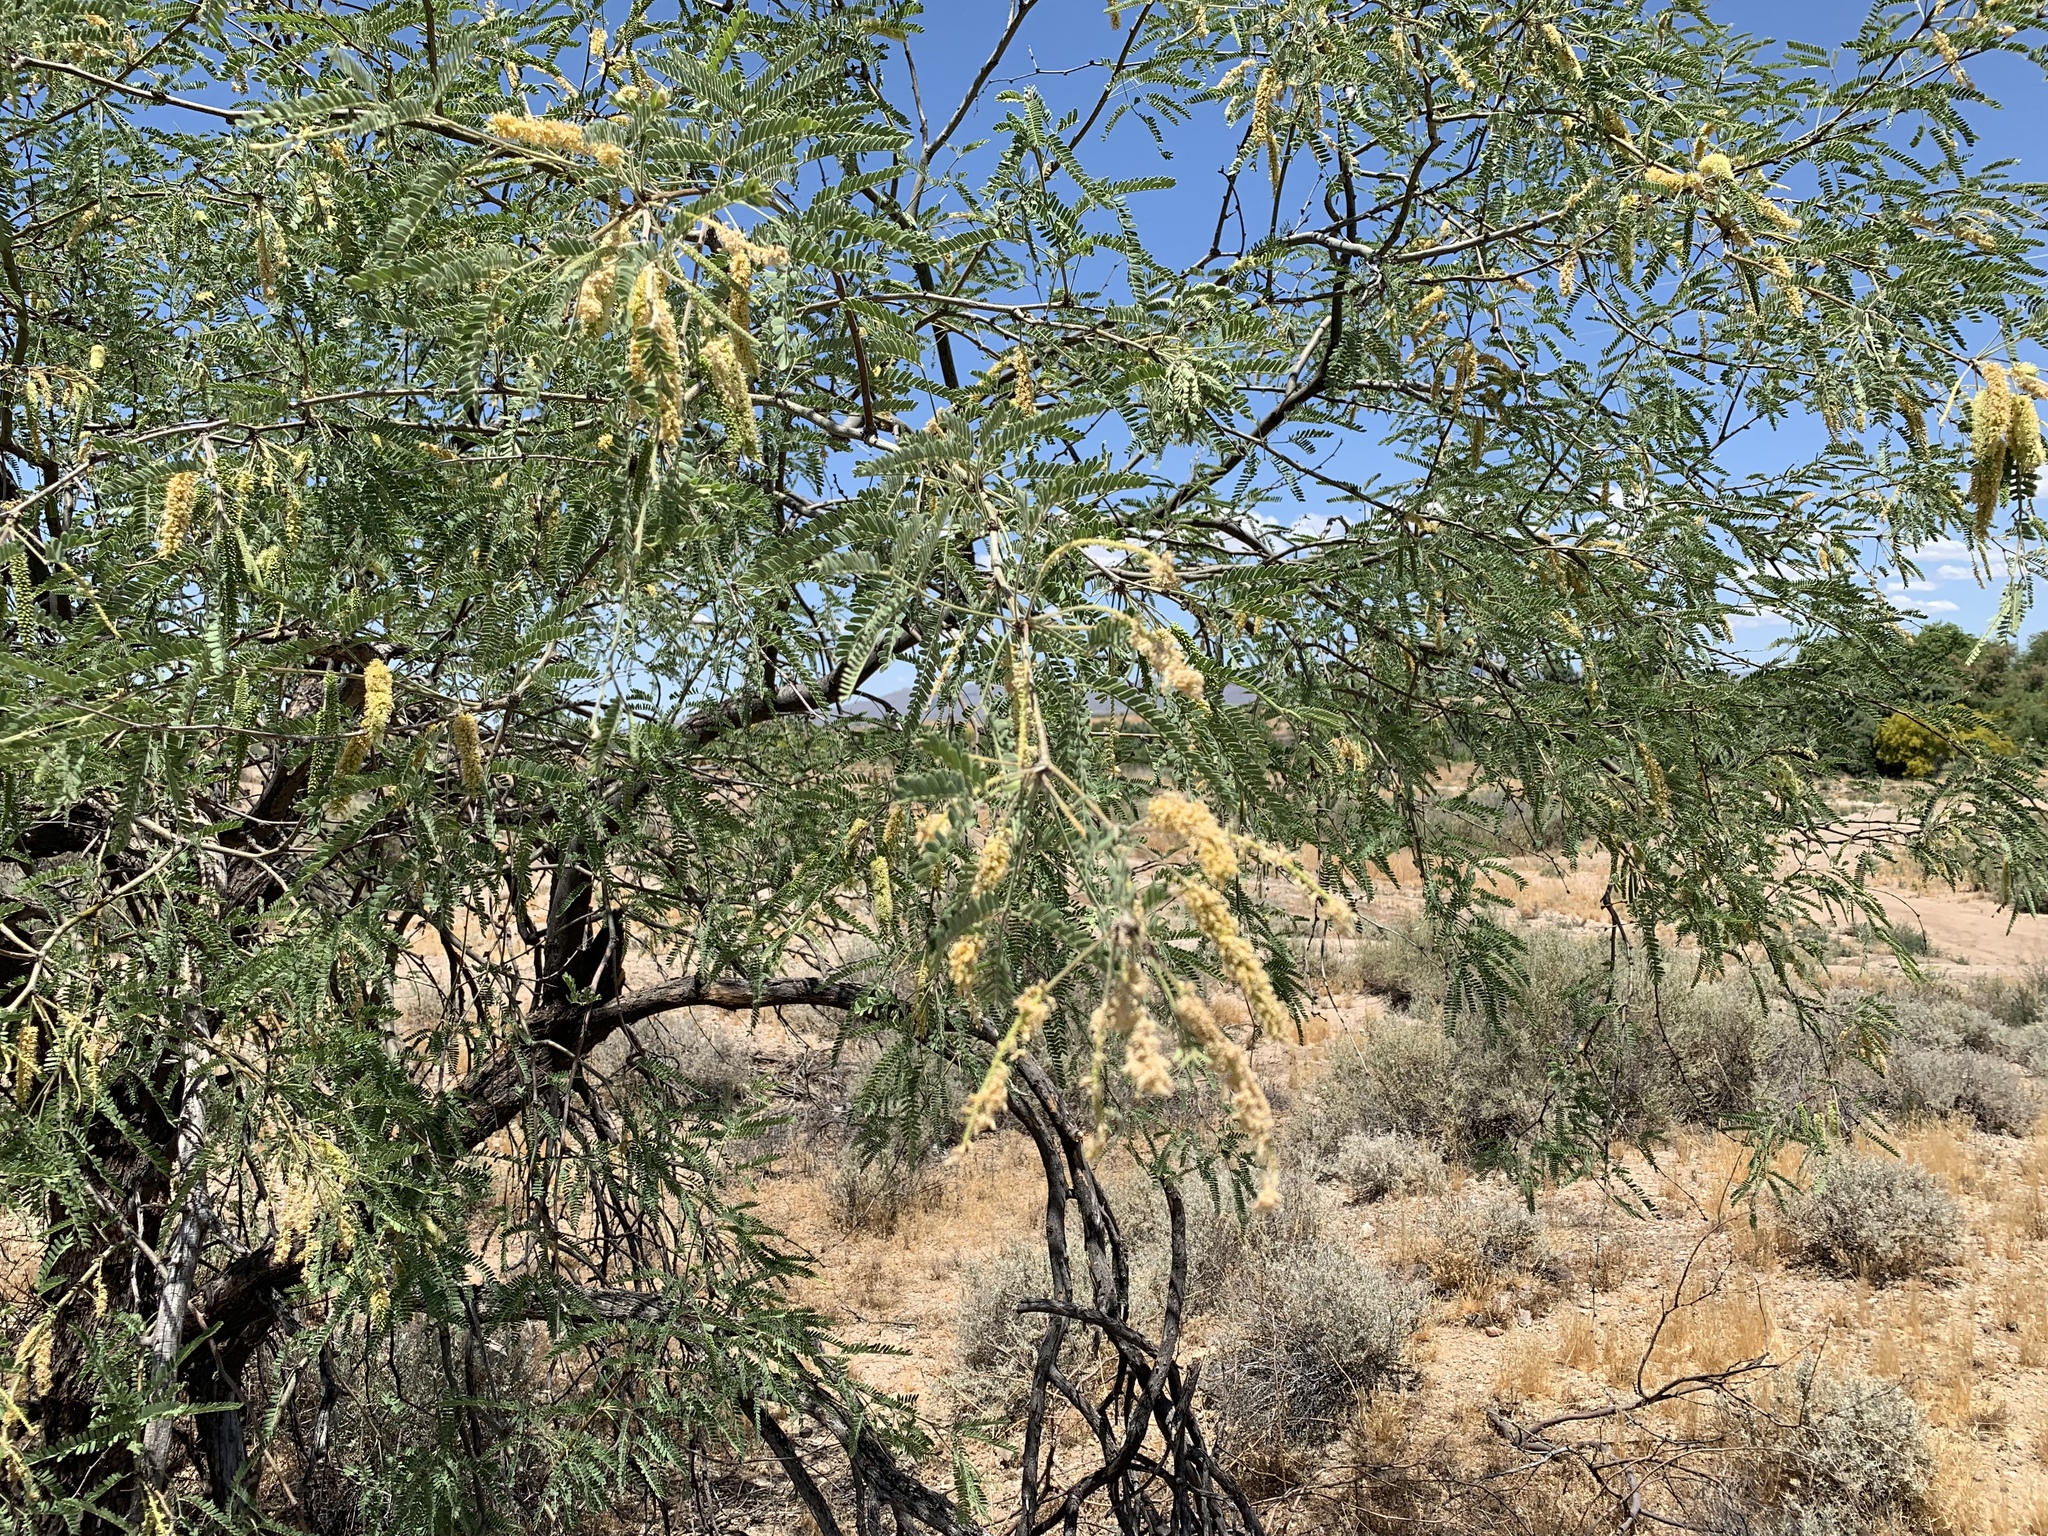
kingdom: Plantae
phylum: Tracheophyta
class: Magnoliopsida
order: Fabales
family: Fabaceae
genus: Prosopis
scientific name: Prosopis velutina
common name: Velvet mesquite
